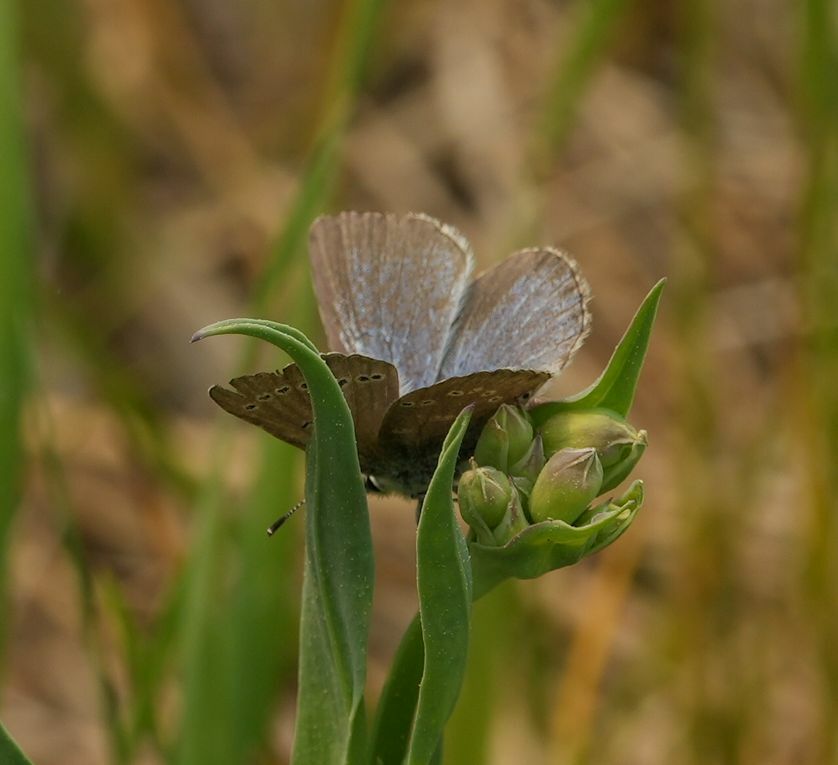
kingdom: Animalia
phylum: Arthropoda
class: Insecta
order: Lepidoptera
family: Lycaenidae
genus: Glaucopsyche
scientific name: Glaucopsyche lygdamus
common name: Silvery blue
